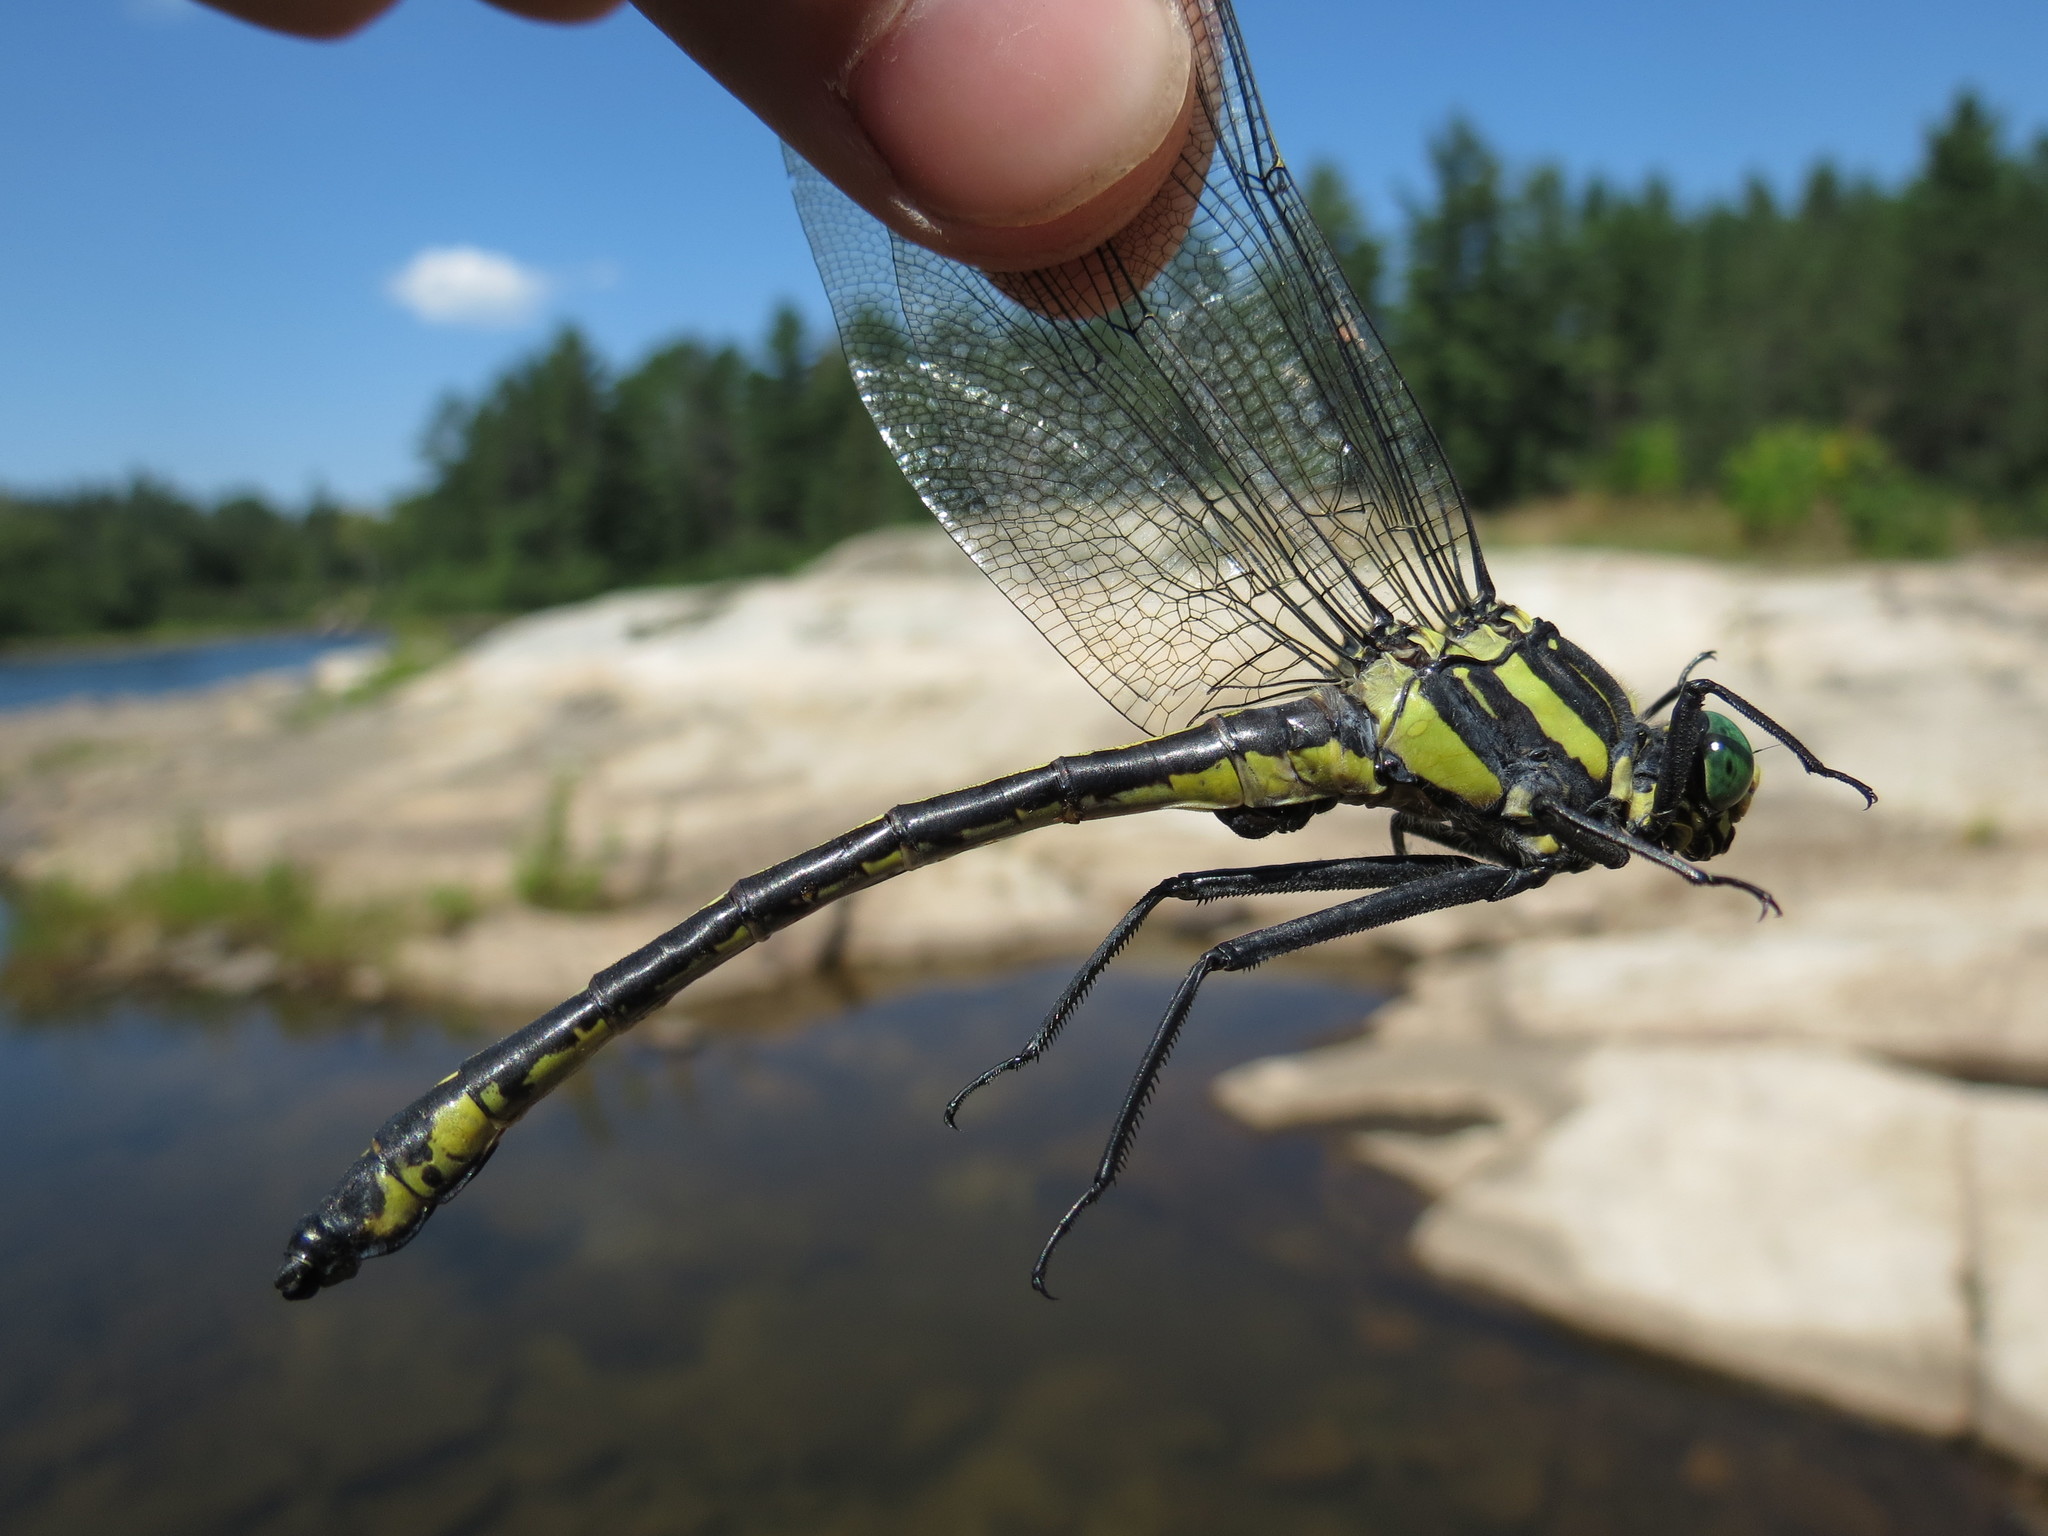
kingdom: Animalia
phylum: Arthropoda
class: Insecta
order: Odonata
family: Gomphidae
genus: Hagenius
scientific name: Hagenius brevistylus
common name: Dragonhunter
